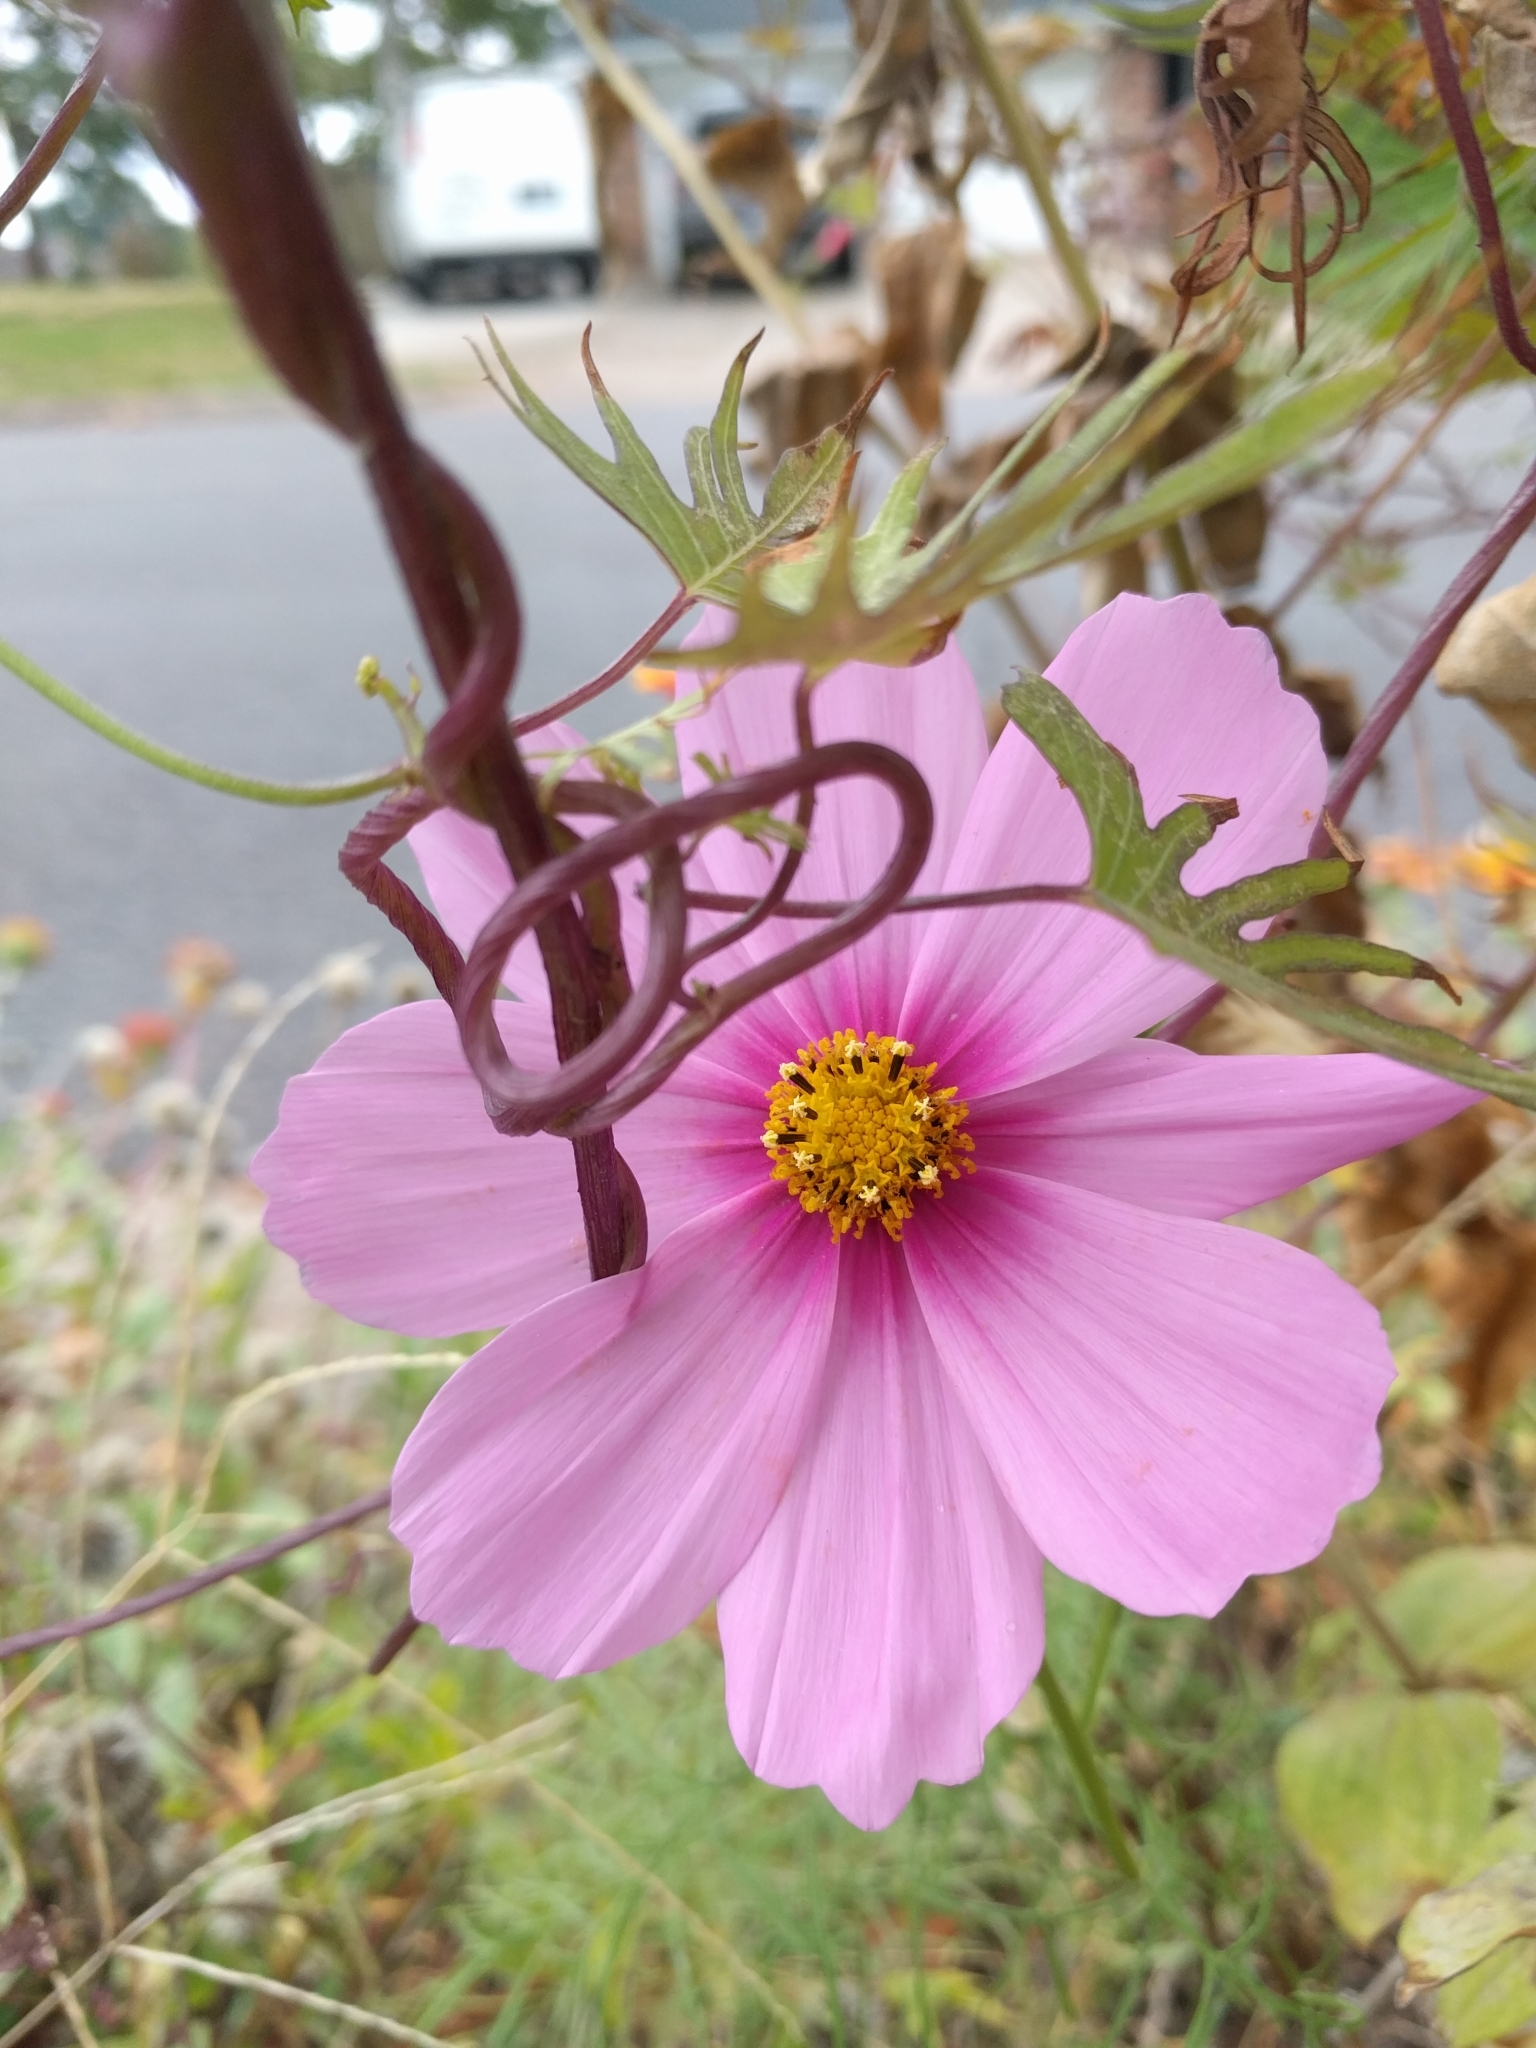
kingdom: Plantae
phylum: Tracheophyta
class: Magnoliopsida
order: Asterales
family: Asteraceae
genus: Cosmos
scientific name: Cosmos bipinnatus
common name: Garden cosmos
